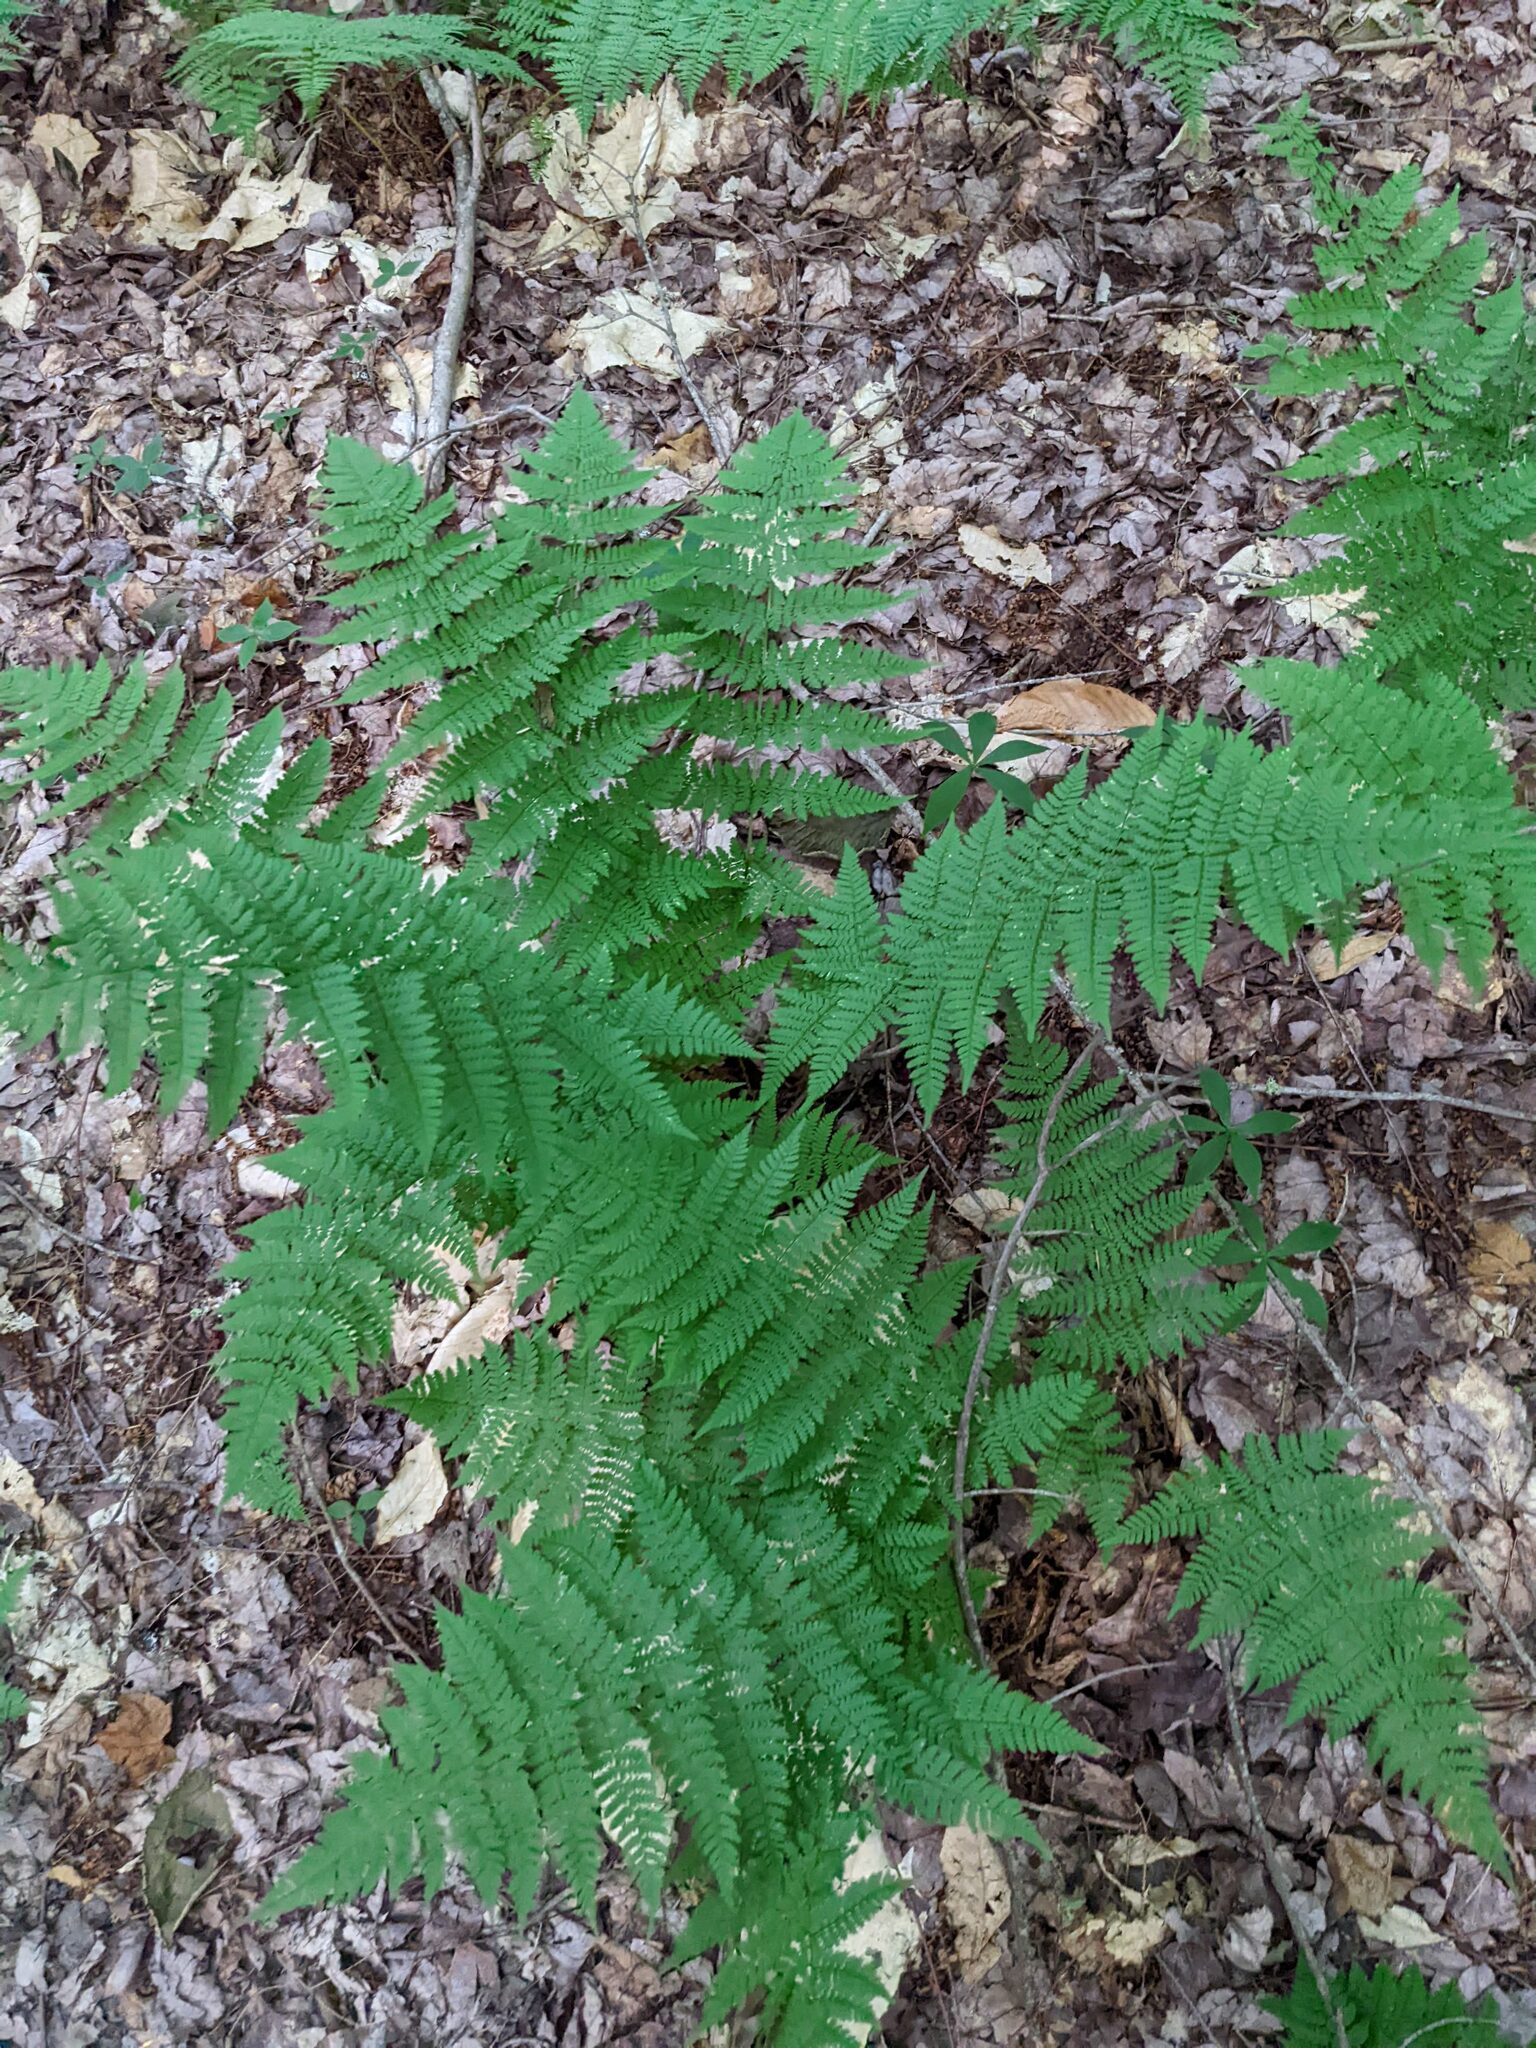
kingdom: Plantae
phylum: Tracheophyta
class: Polypodiopsida
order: Polypodiales
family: Dryopteridaceae
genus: Dryopteris
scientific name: Dryopteris intermedia
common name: Evergreen wood fern
